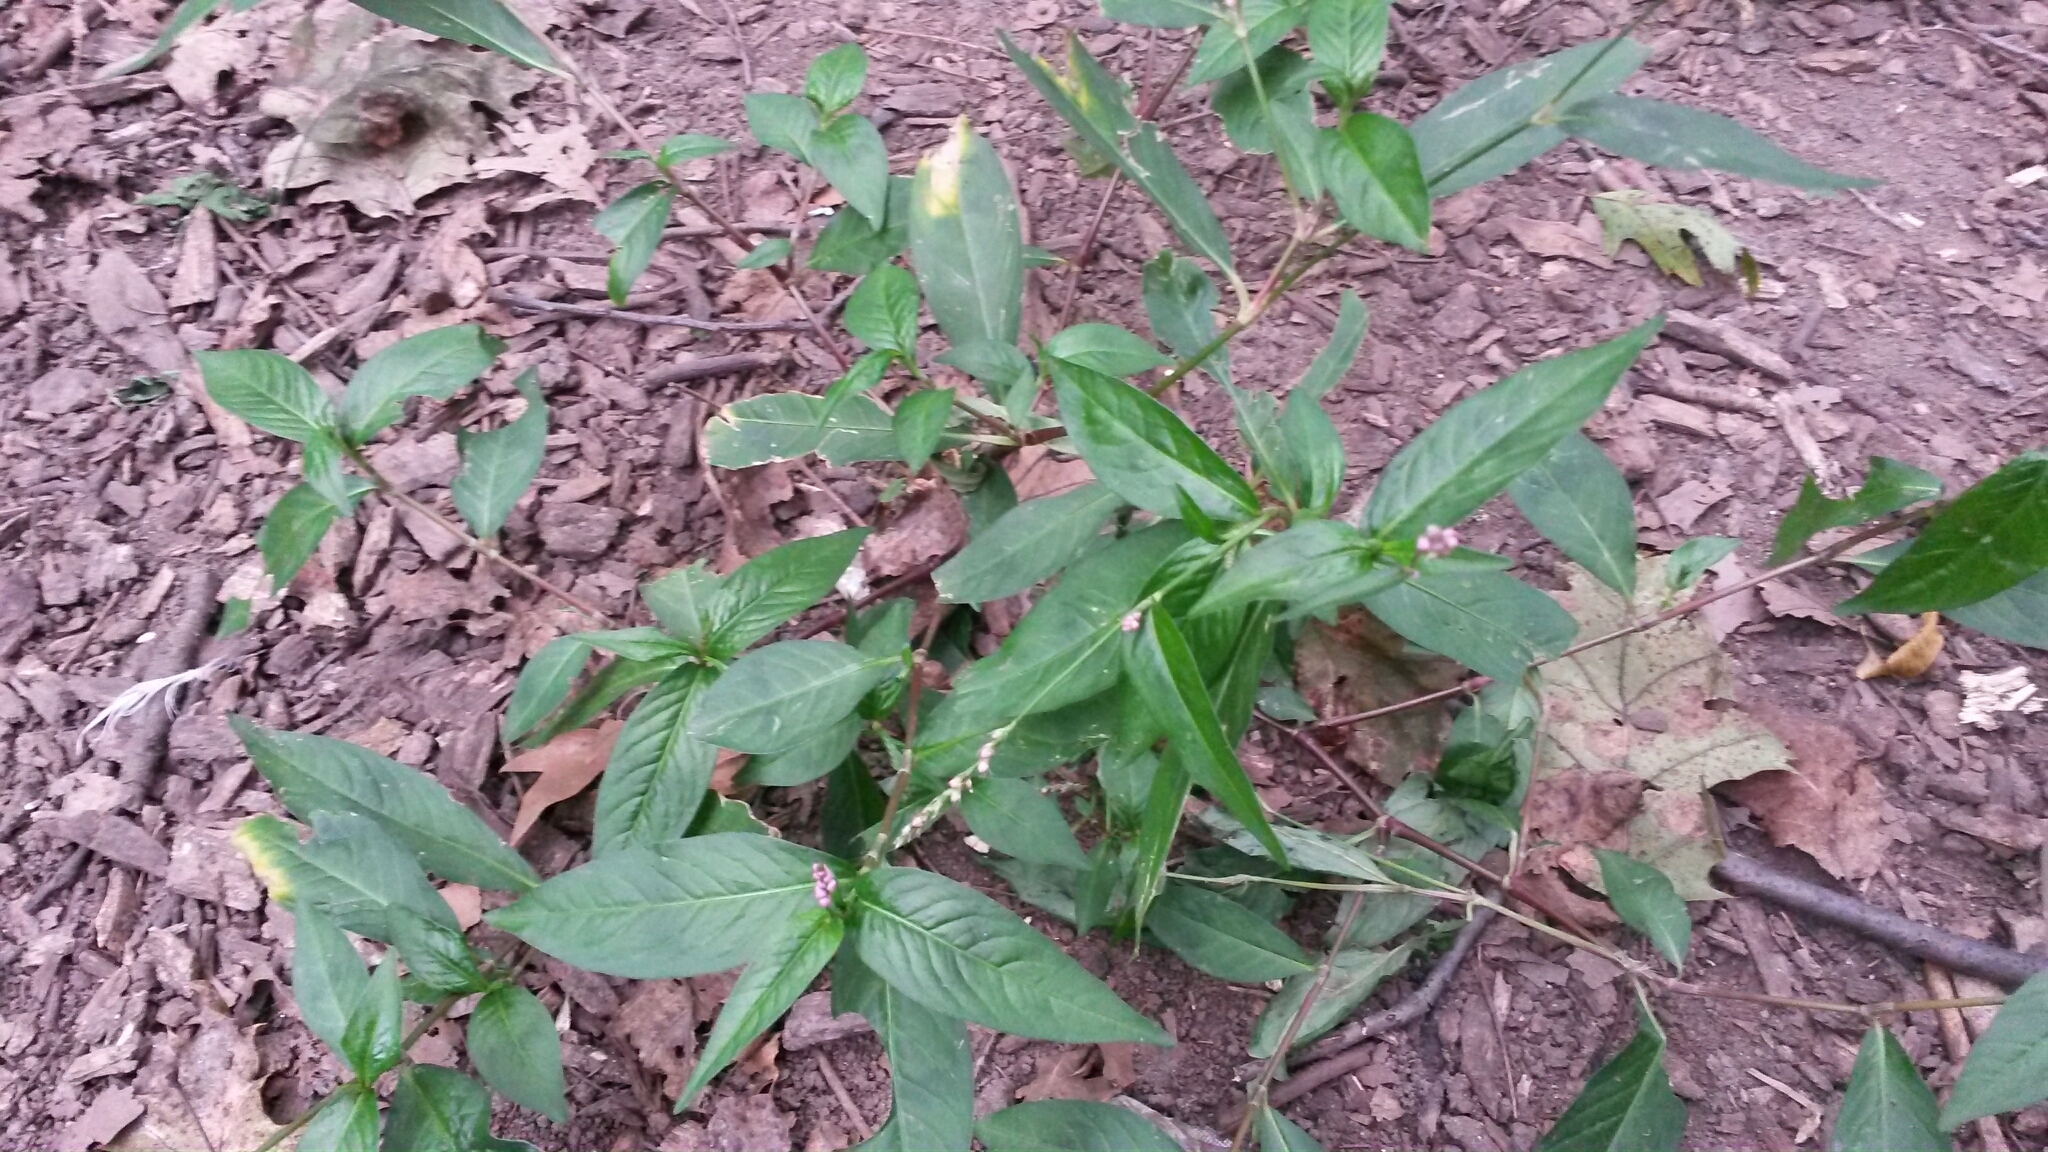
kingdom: Plantae
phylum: Tracheophyta
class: Magnoliopsida
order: Caryophyllales
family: Polygonaceae
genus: Persicaria
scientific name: Persicaria longiseta
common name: Bristly lady's-thumb
